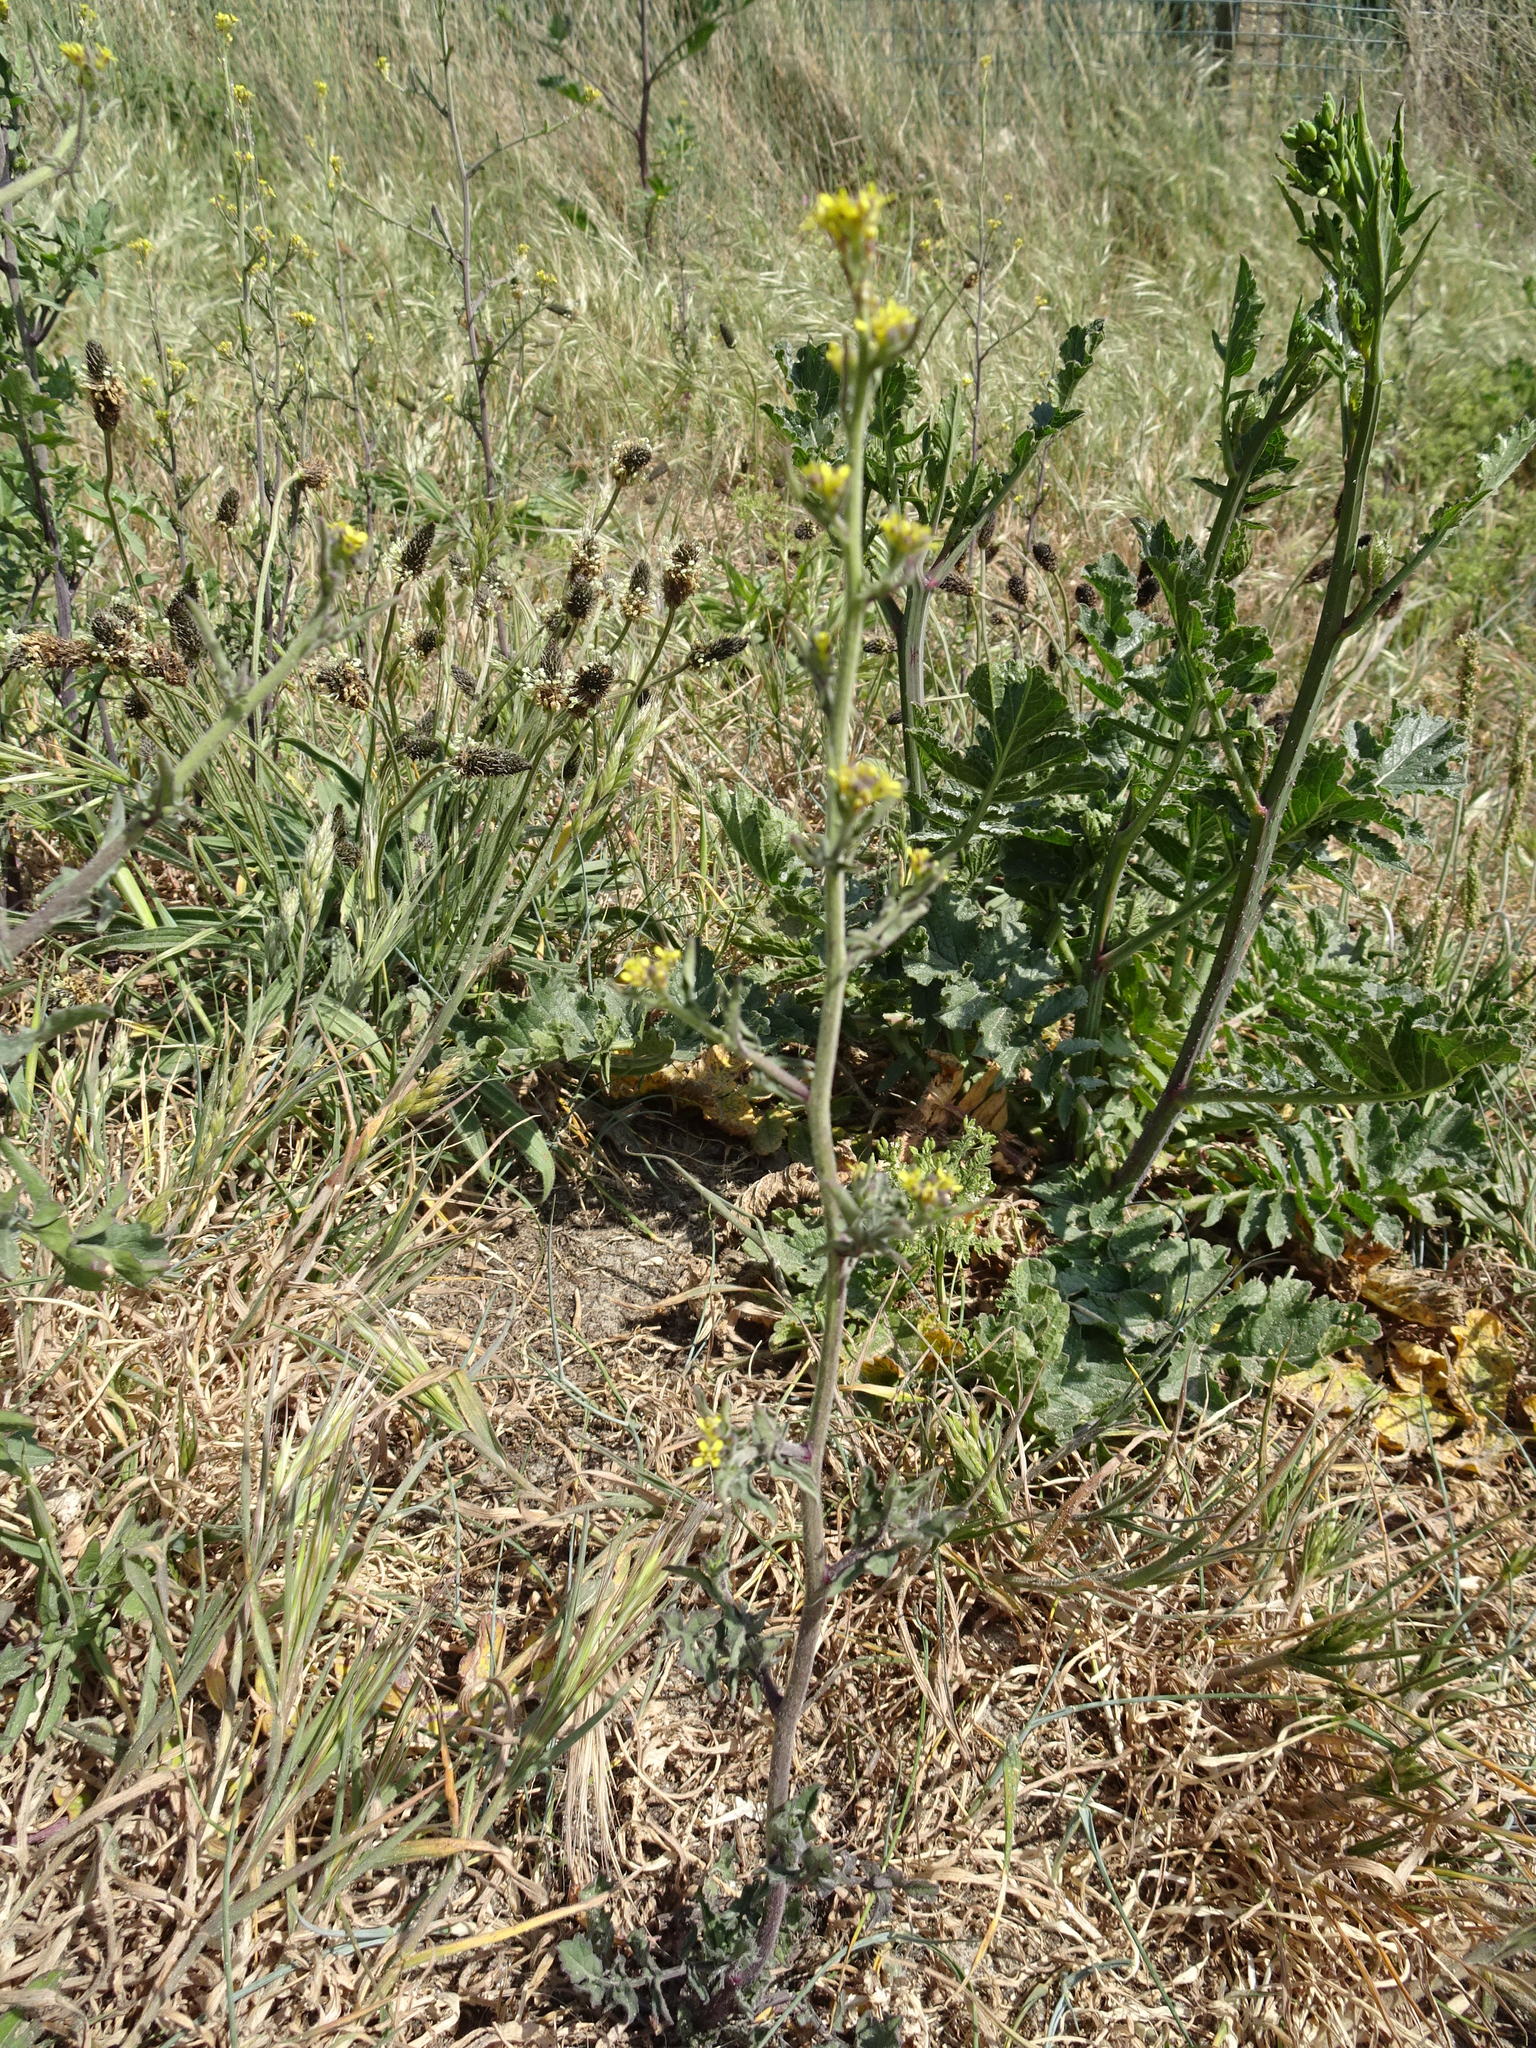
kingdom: Plantae
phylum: Tracheophyta
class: Magnoliopsida
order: Brassicales
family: Brassicaceae
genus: Sisymbrium
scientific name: Sisymbrium officinale
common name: Hedge mustard
